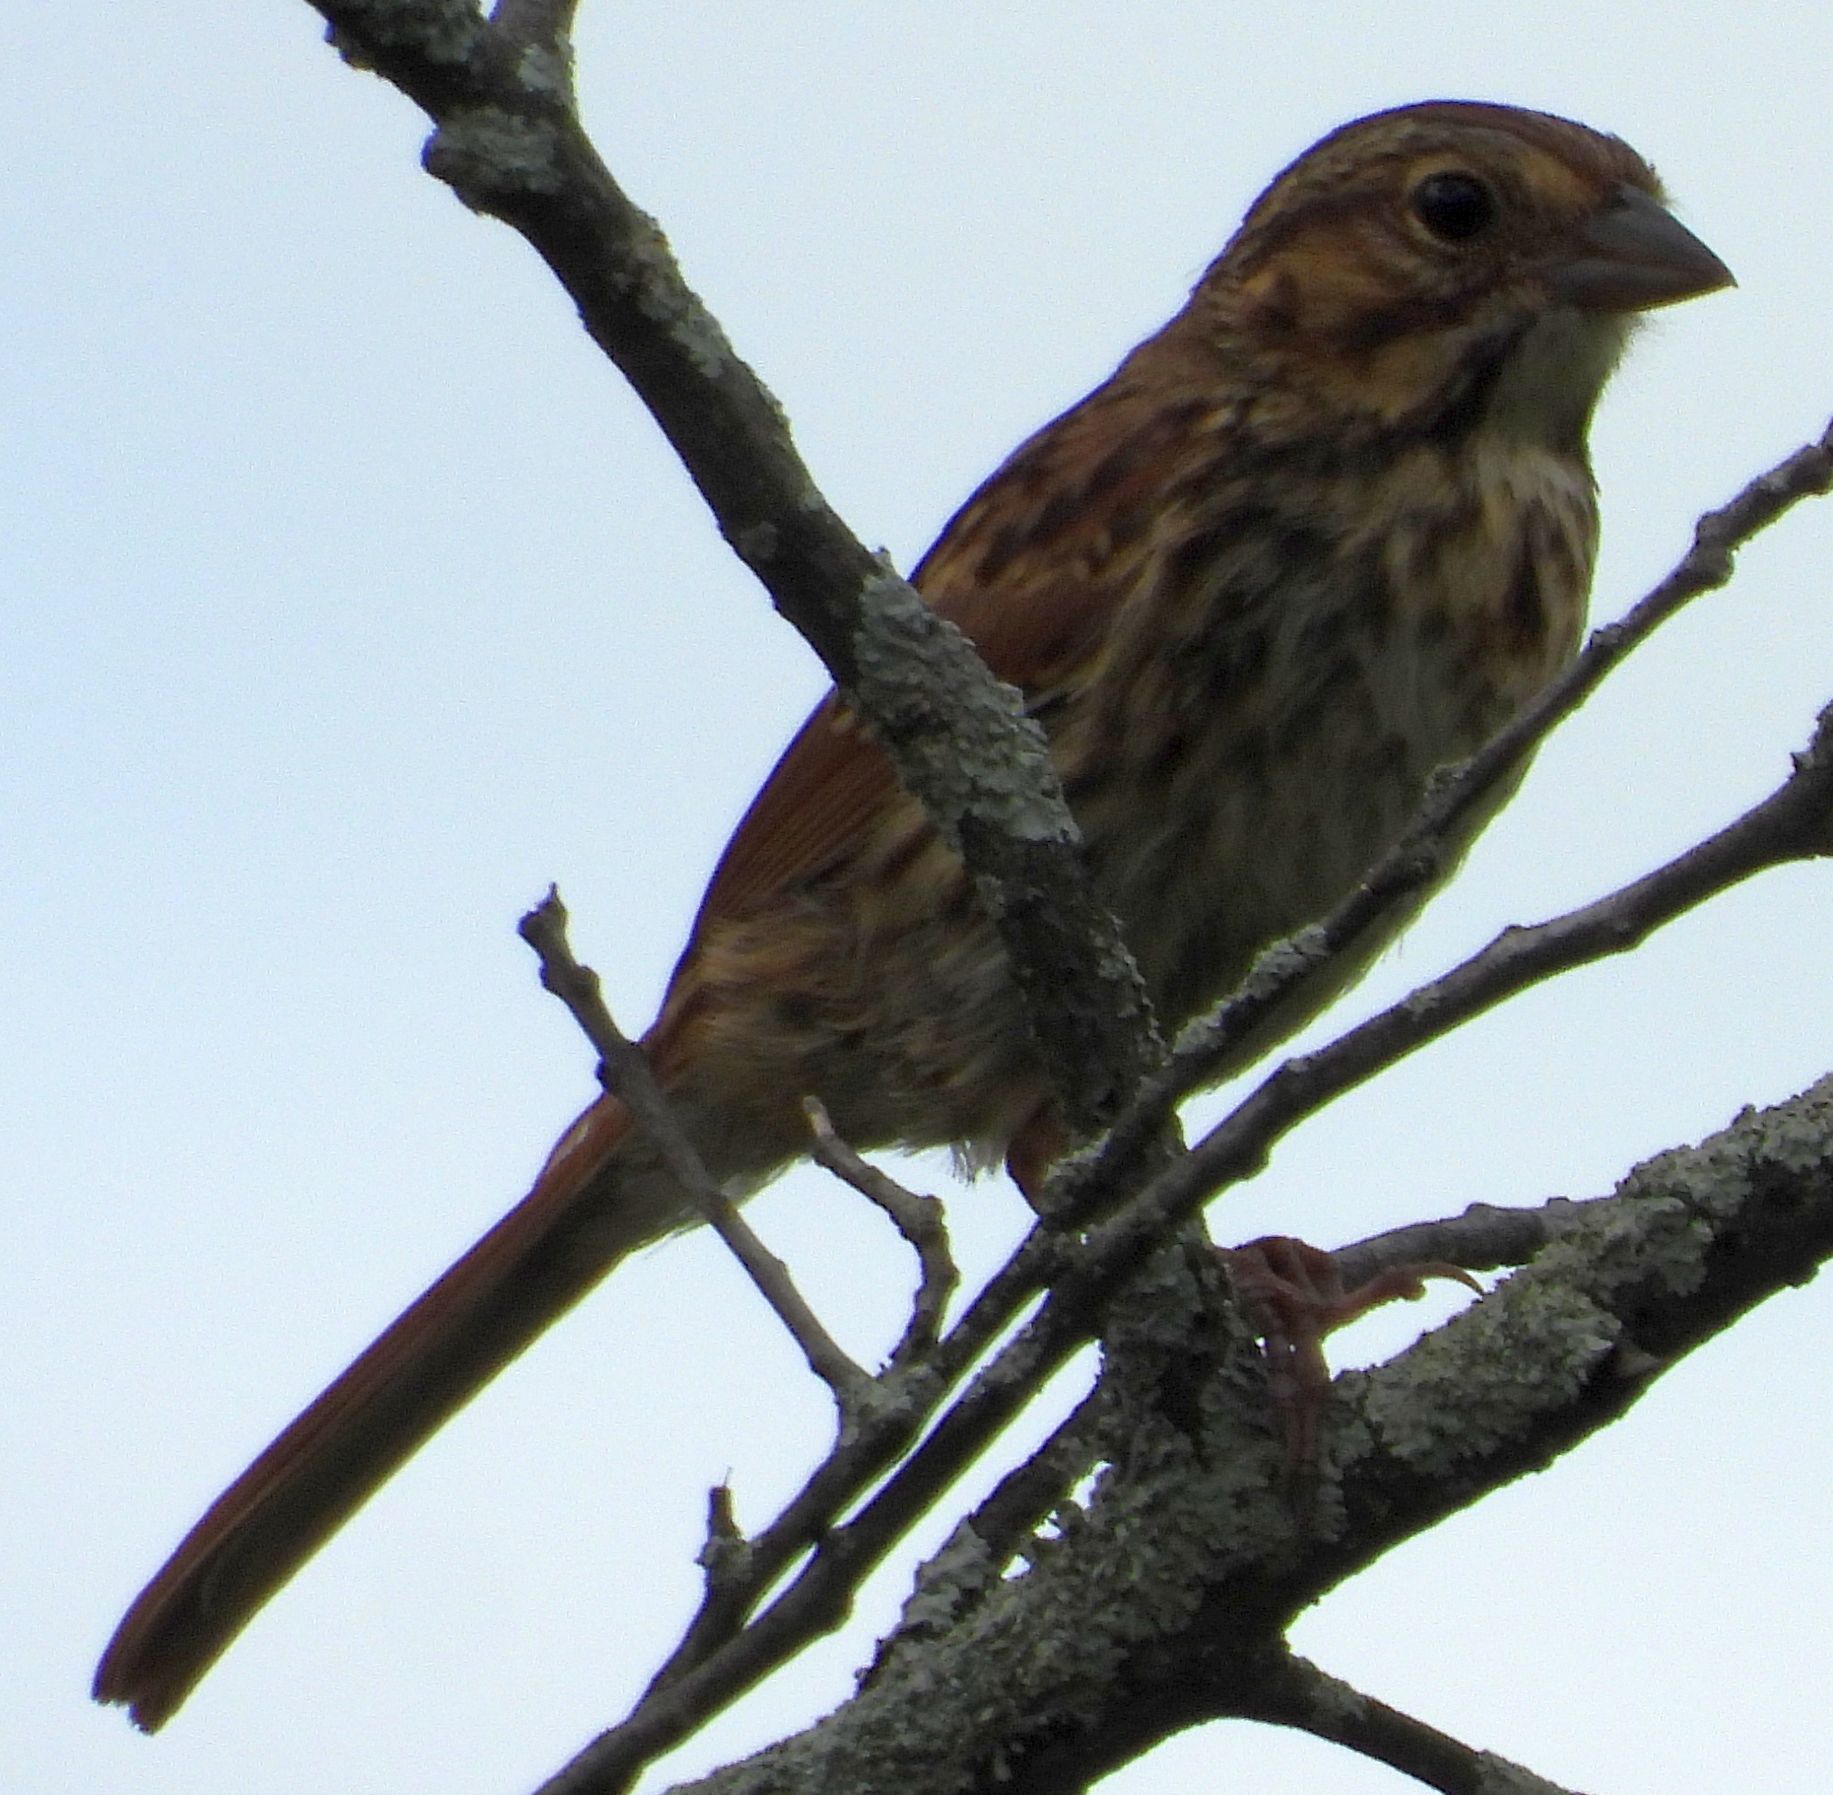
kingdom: Animalia
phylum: Chordata
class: Aves
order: Passeriformes
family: Passerellidae
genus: Melospiza
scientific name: Melospiza melodia
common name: Song sparrow
